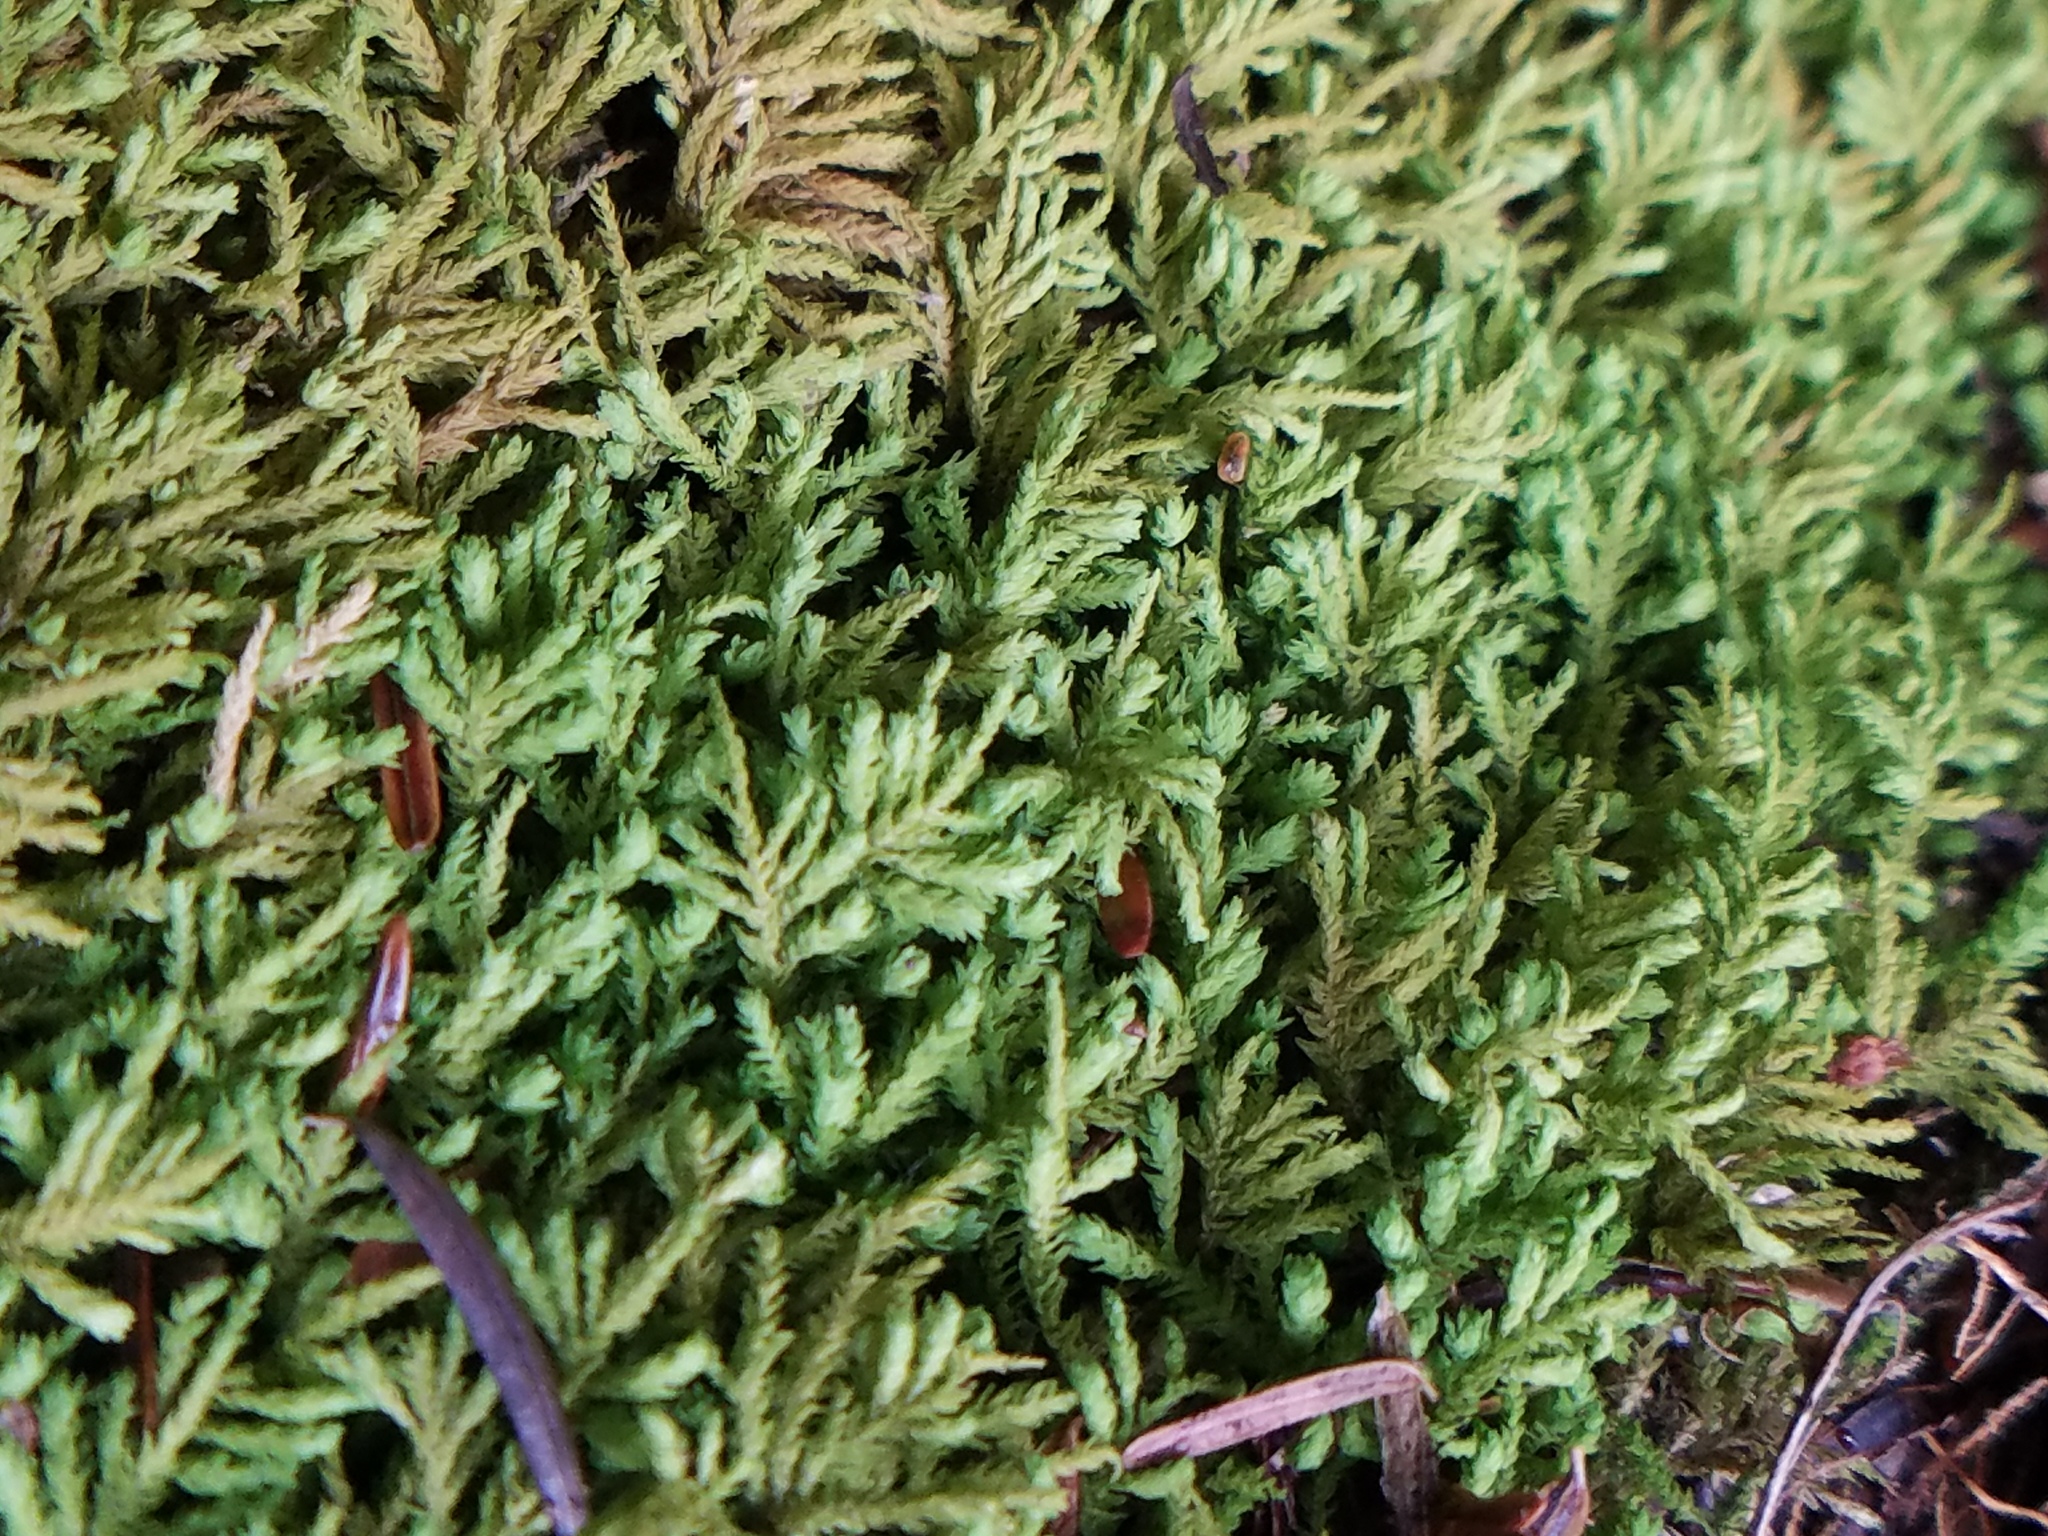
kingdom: Plantae
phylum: Bryophyta
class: Bryopsida
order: Hypnales
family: Neckeraceae
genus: Pseudanomodon
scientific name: Pseudanomodon attenuatus
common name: Tree-skirt moss
